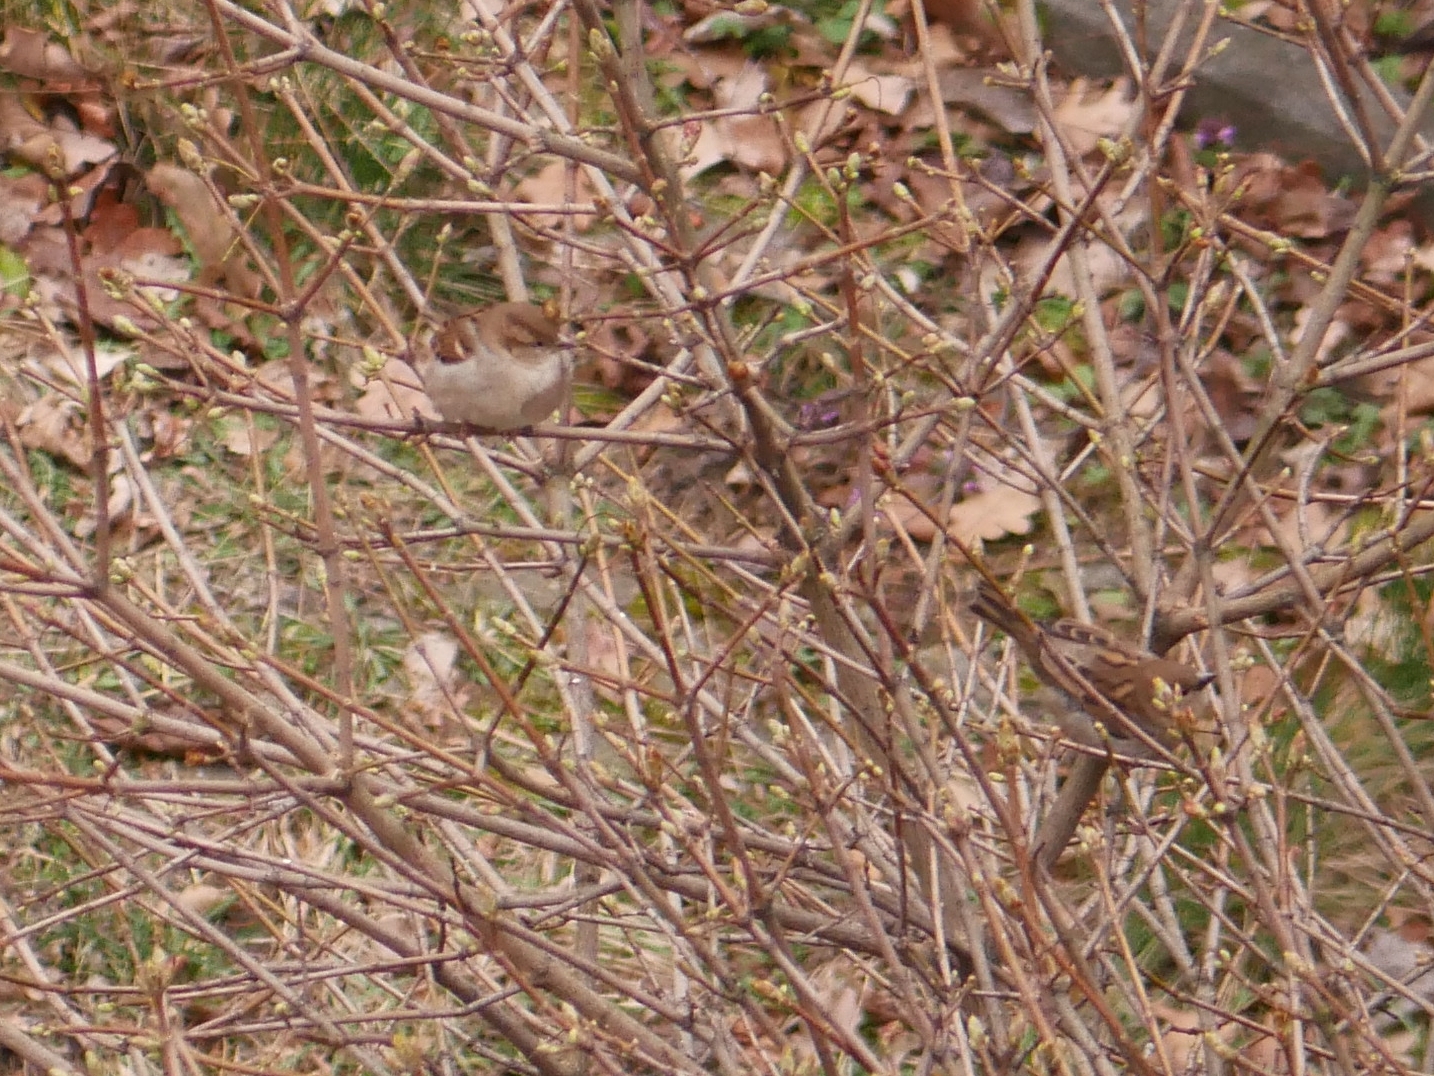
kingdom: Animalia
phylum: Chordata
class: Aves
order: Passeriformes
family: Passeridae
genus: Passer
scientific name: Passer domesticus
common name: House sparrow
